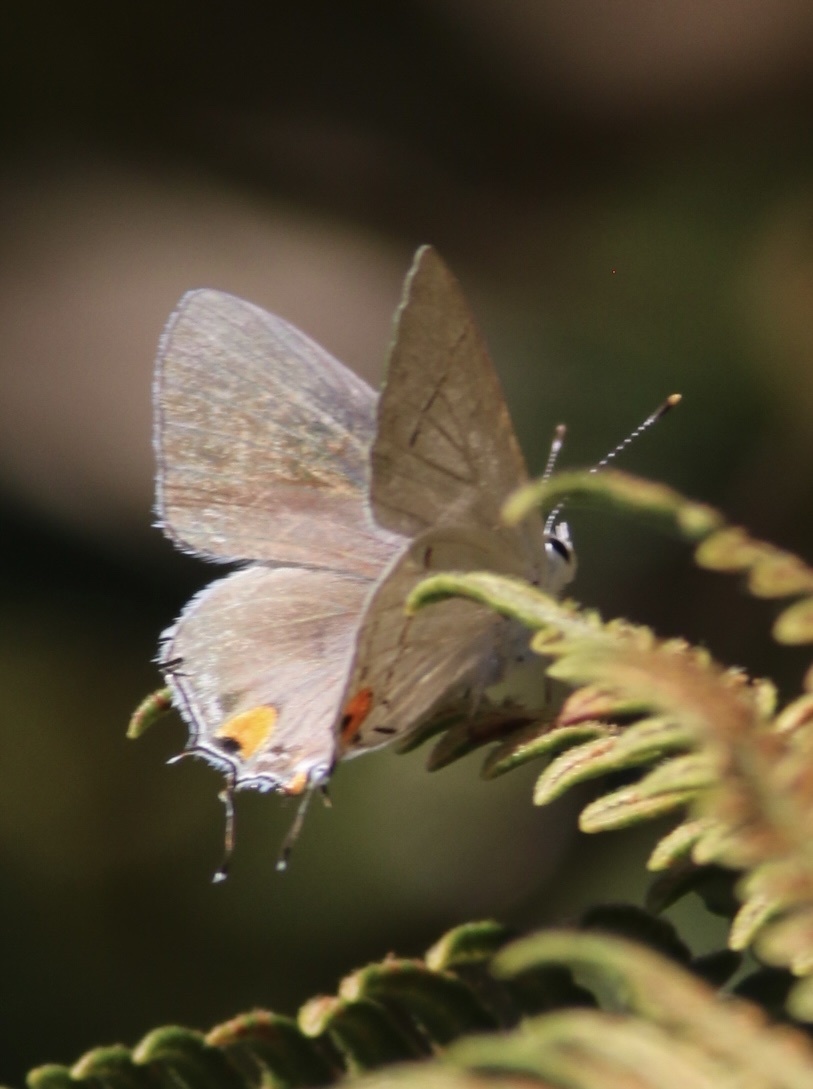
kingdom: Animalia
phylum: Arthropoda
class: Insecta
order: Lepidoptera
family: Lycaenidae
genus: Strymon
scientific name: Strymon melinus
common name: Gray hairstreak
